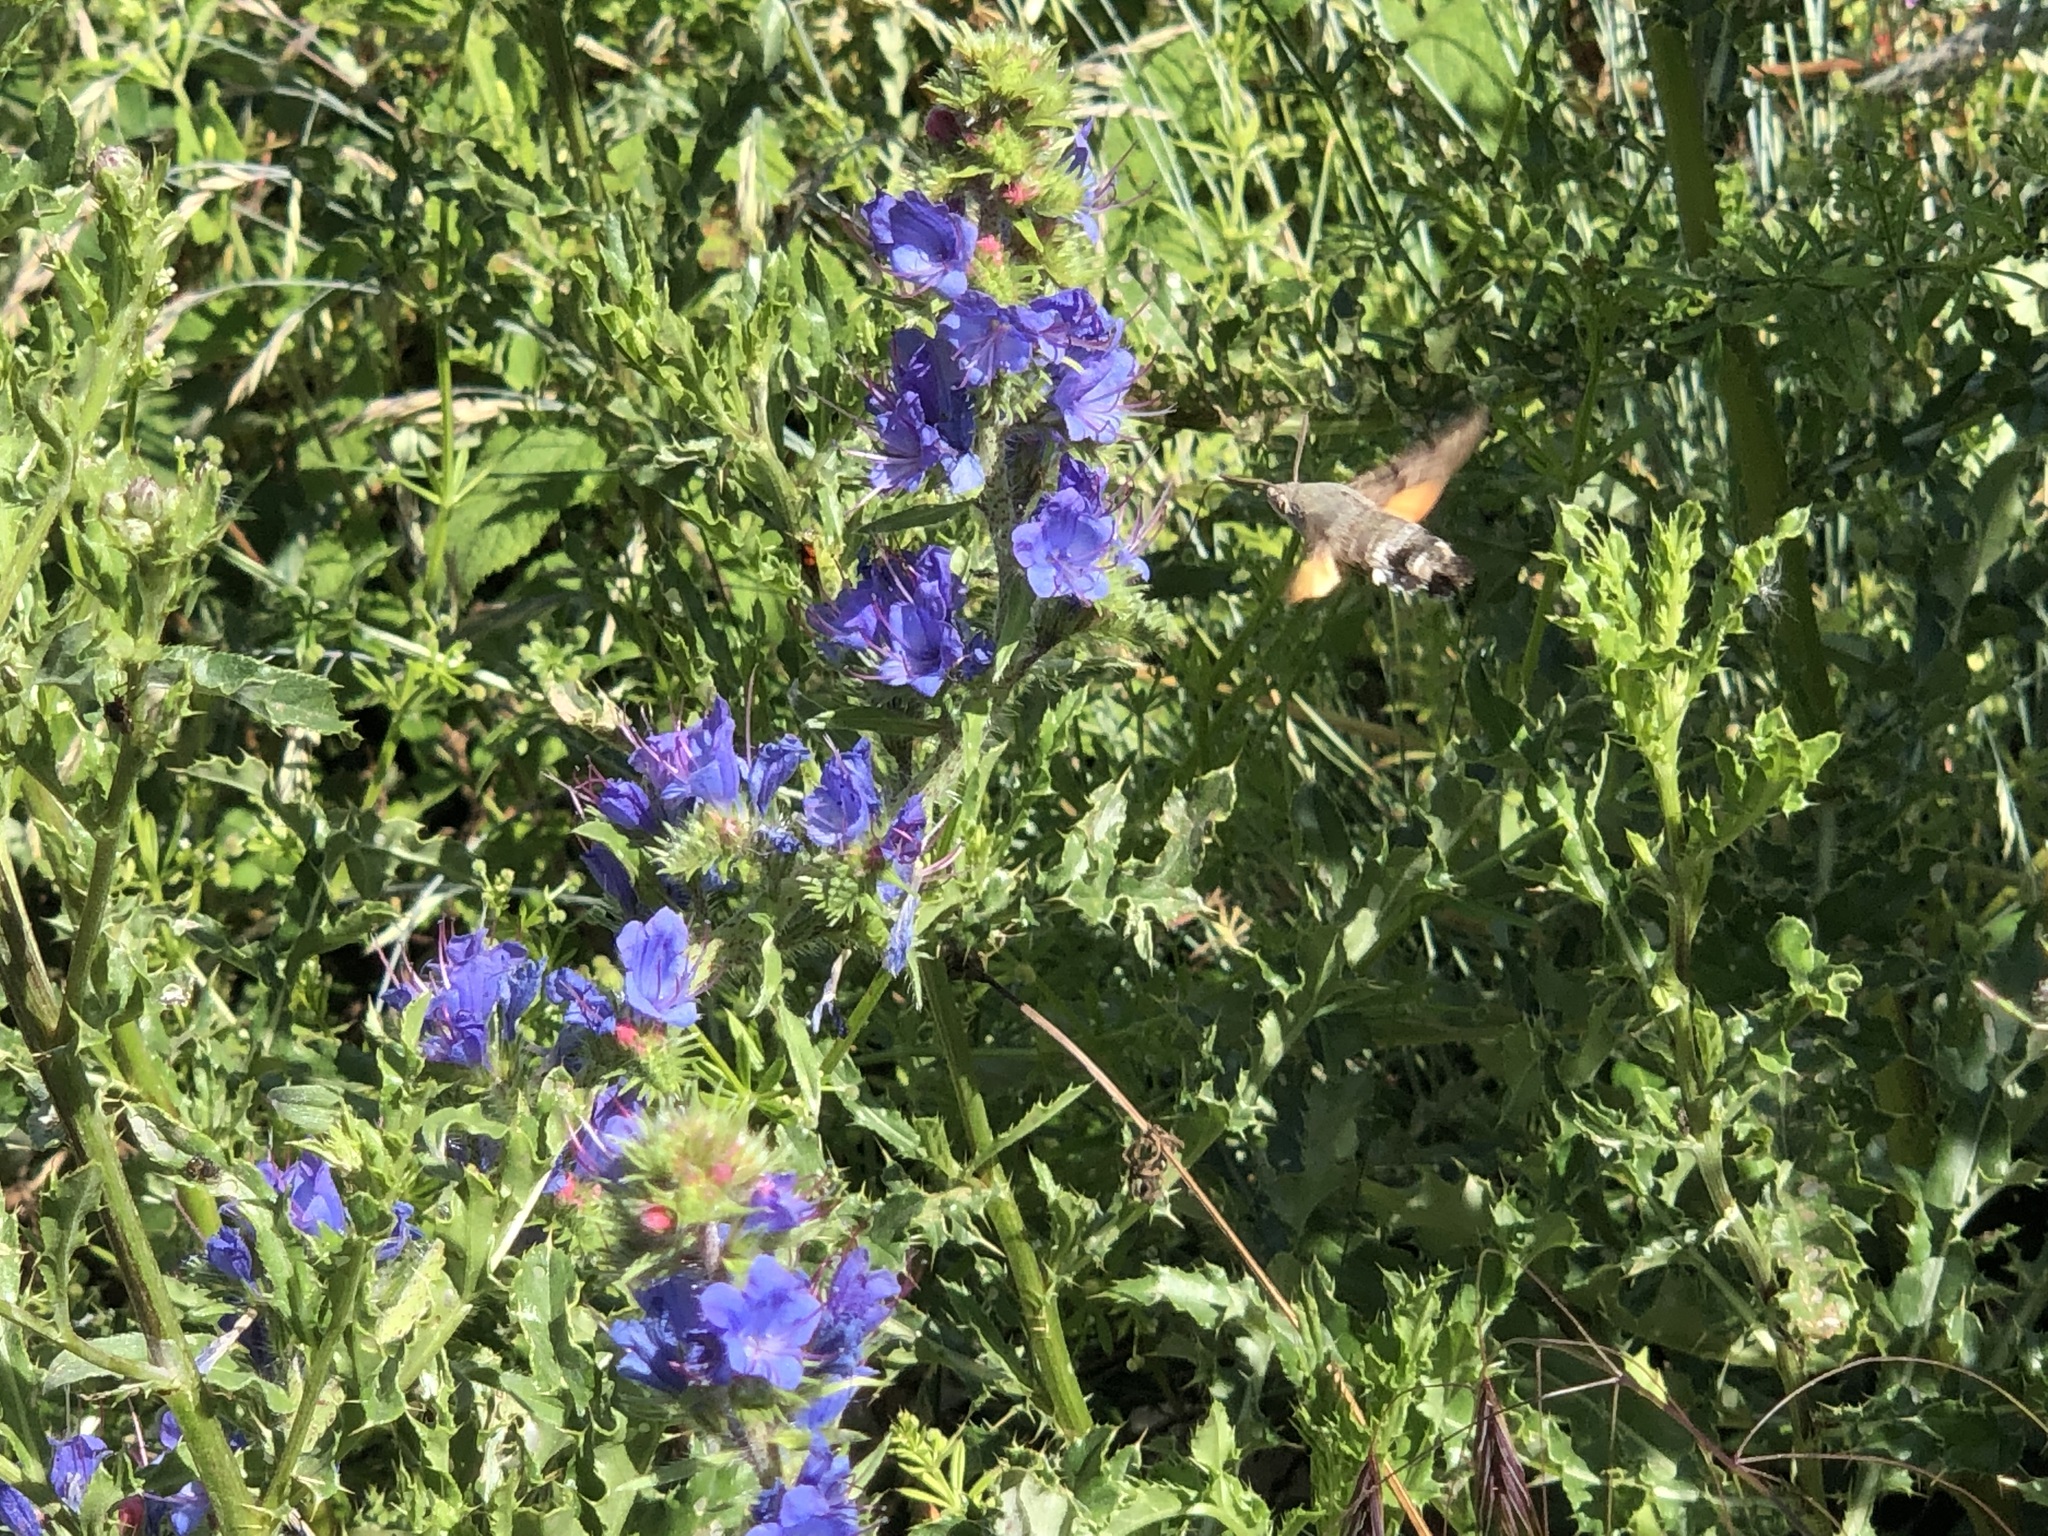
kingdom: Animalia
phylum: Arthropoda
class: Insecta
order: Lepidoptera
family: Sphingidae
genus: Macroglossum
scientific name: Macroglossum stellatarum
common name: Humming-bird hawk-moth
